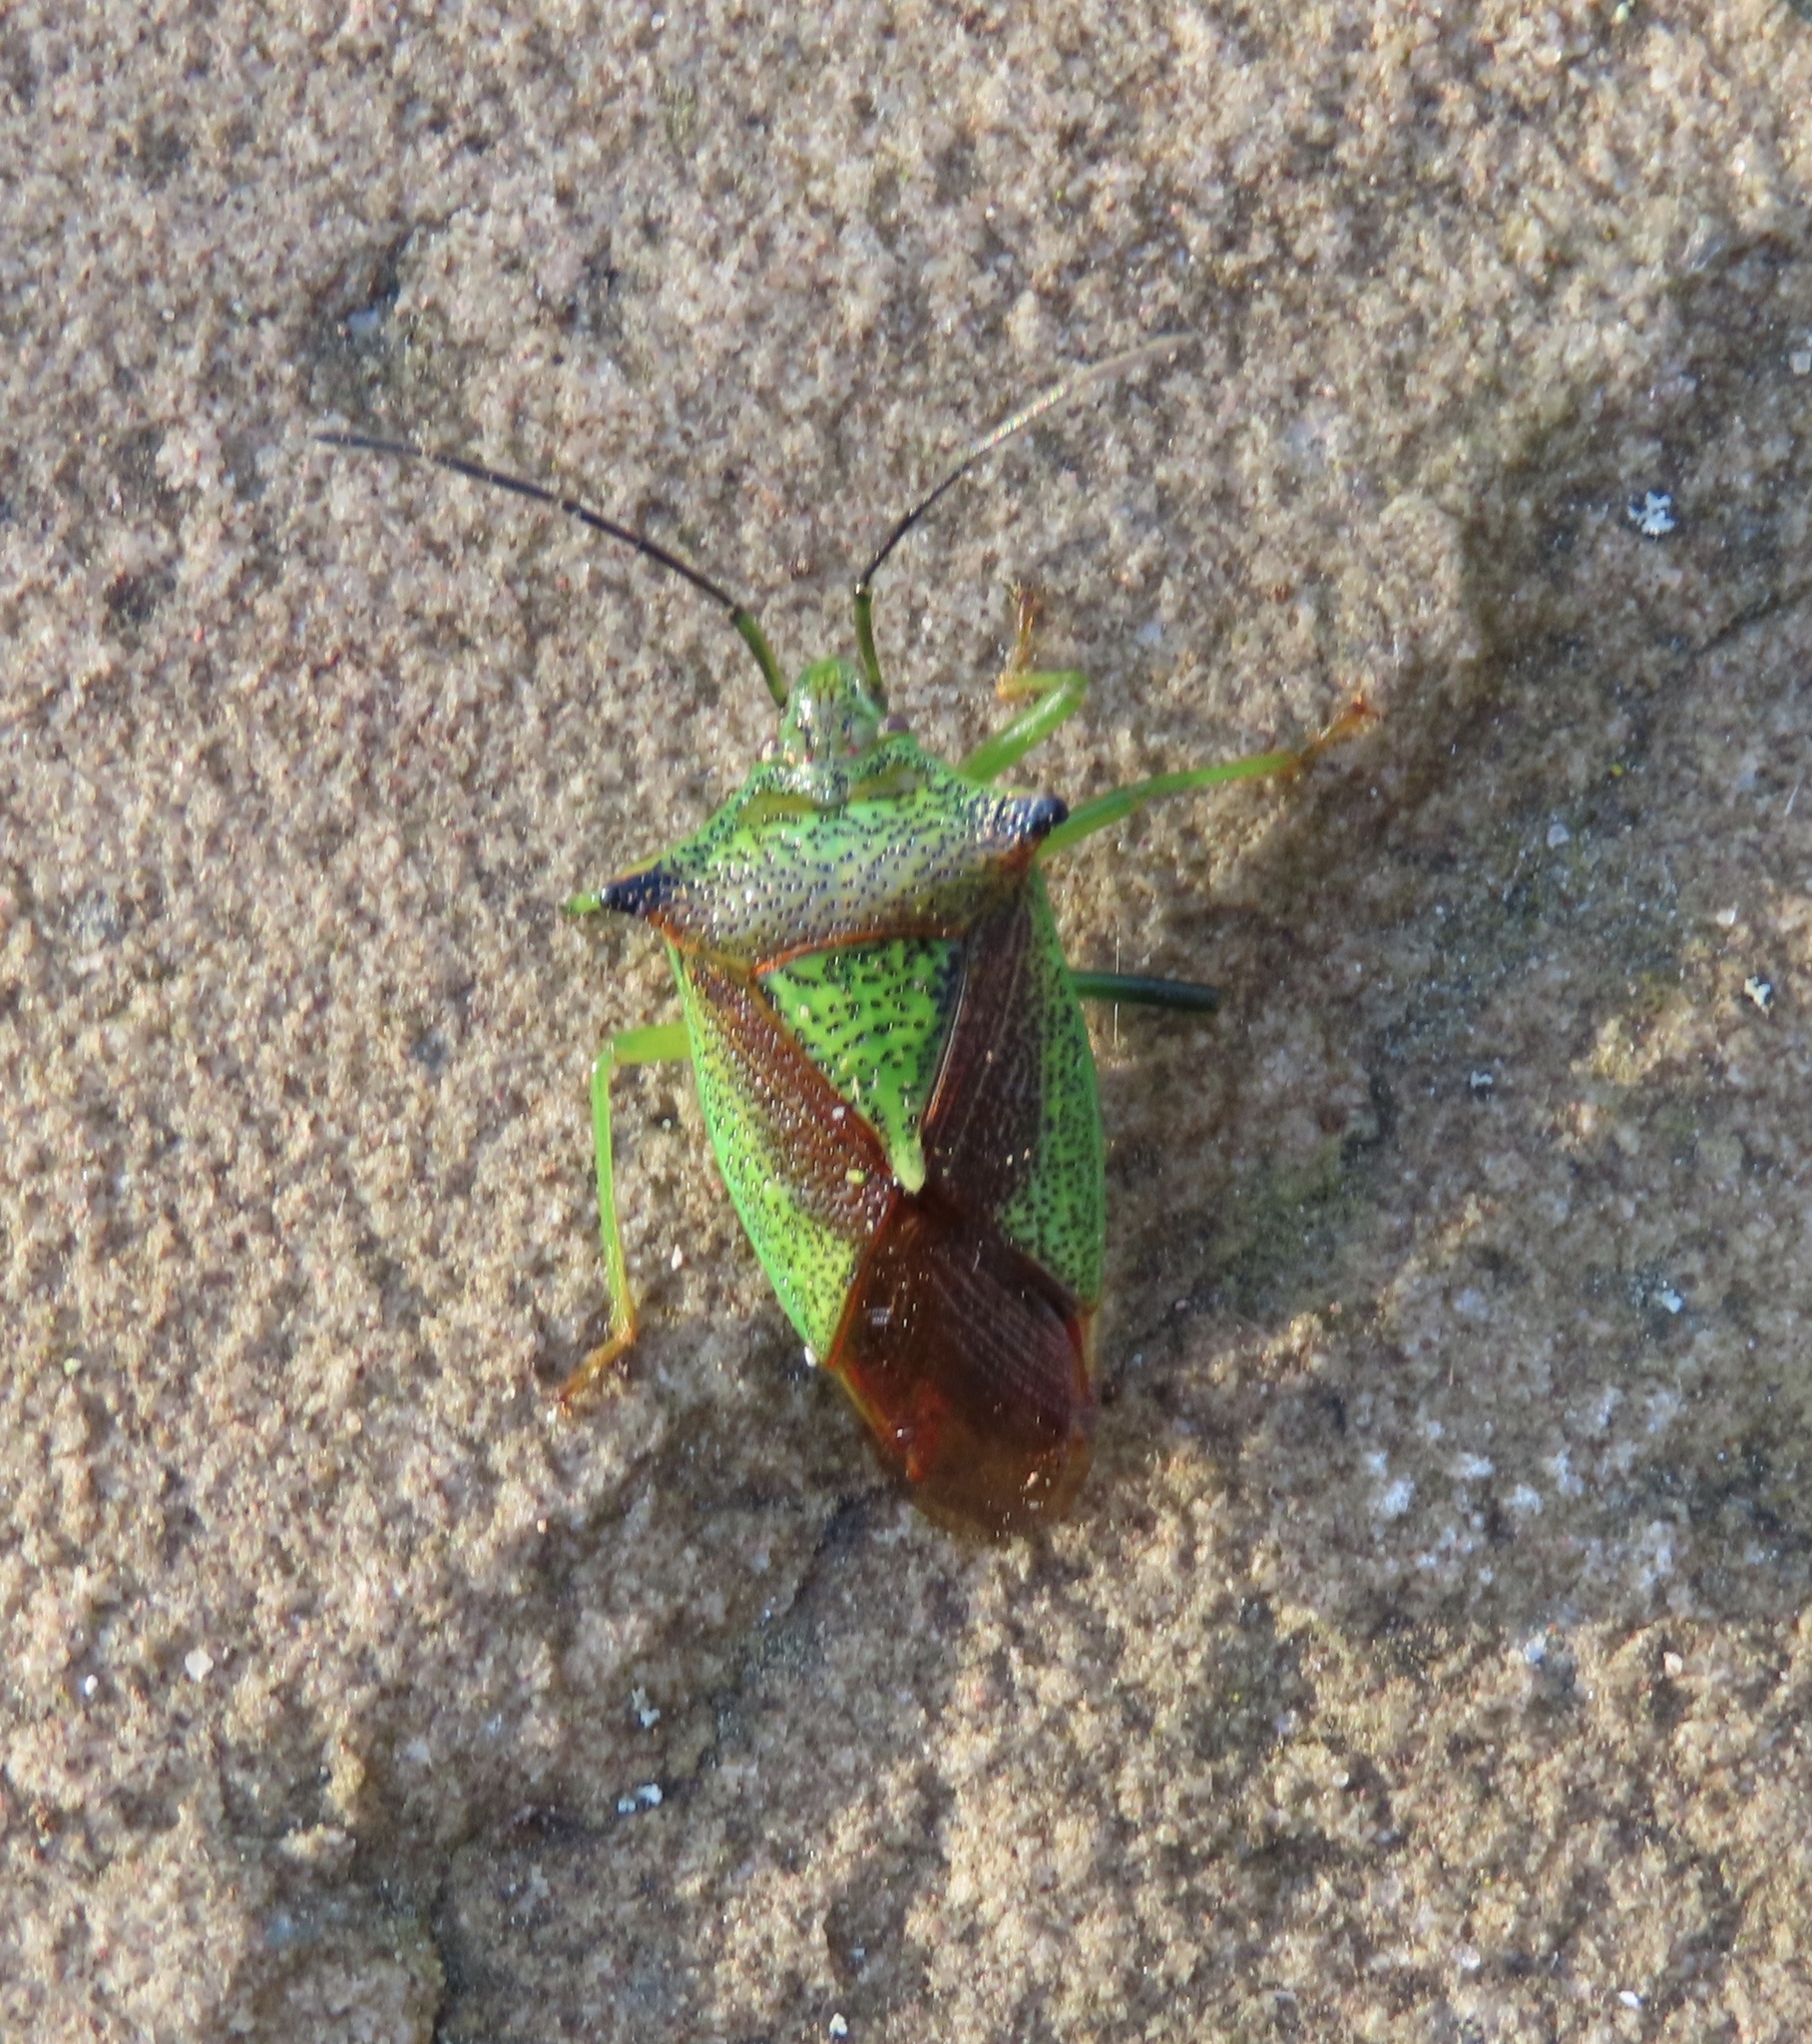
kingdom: Animalia
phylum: Arthropoda
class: Insecta
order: Hemiptera
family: Acanthosomatidae
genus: Acanthosoma
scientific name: Acanthosoma haemorrhoidale
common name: Hawthorn shieldbug
